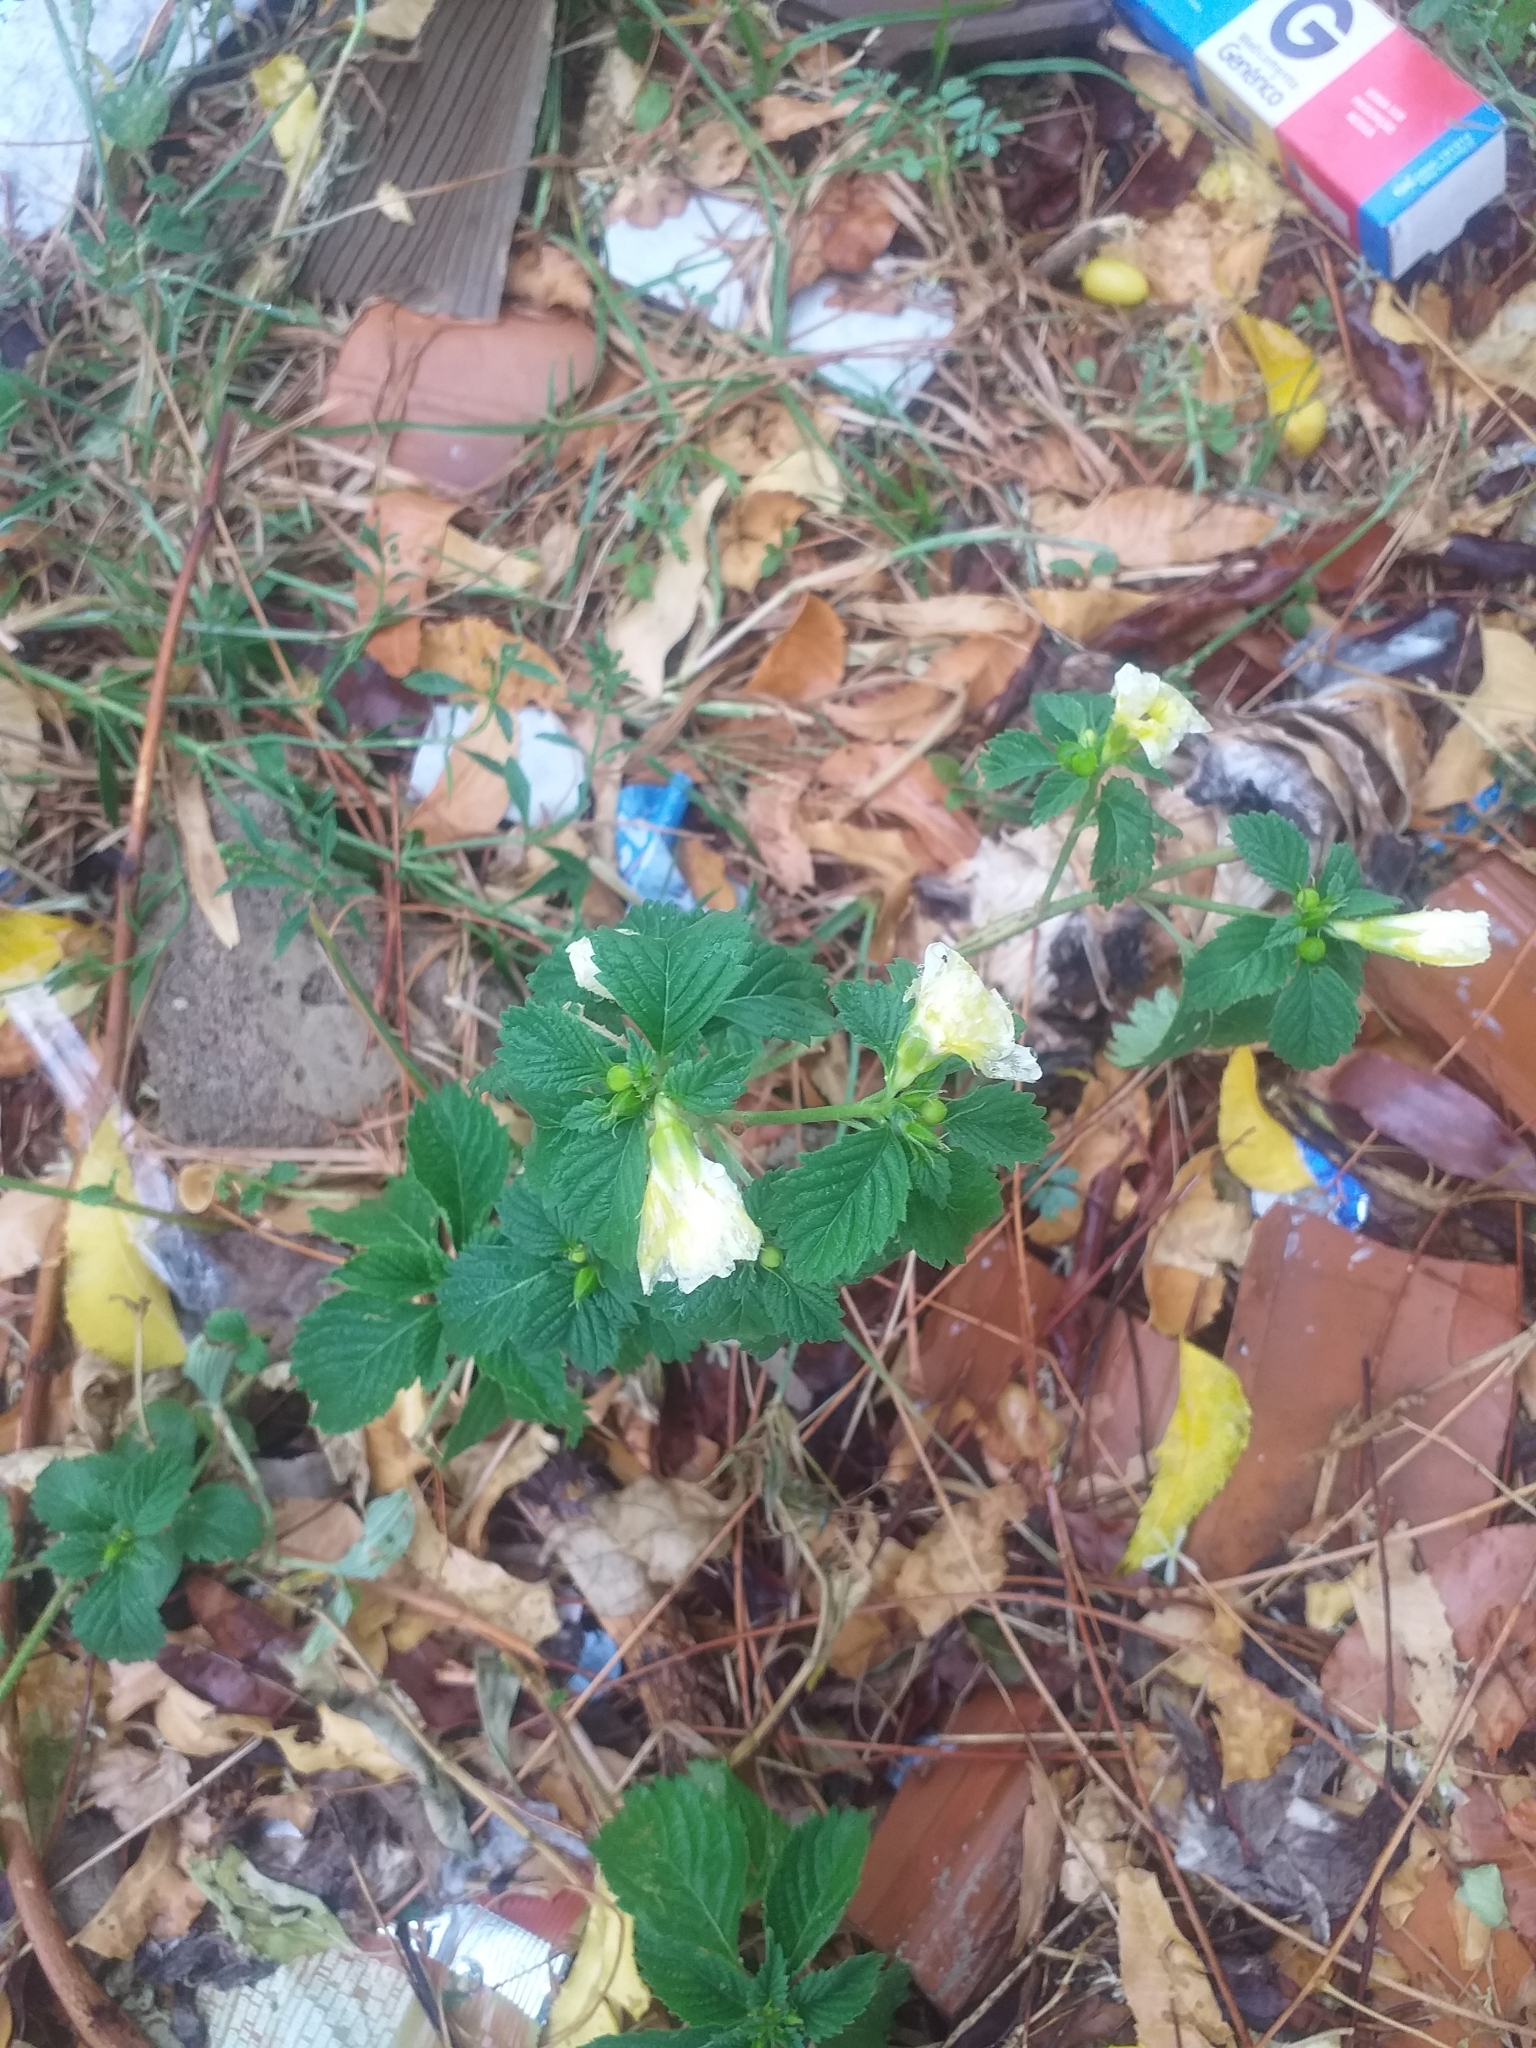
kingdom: Plantae
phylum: Tracheophyta
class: Magnoliopsida
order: Malpighiales
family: Turneraceae
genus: Turnera
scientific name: Turnera subulata
